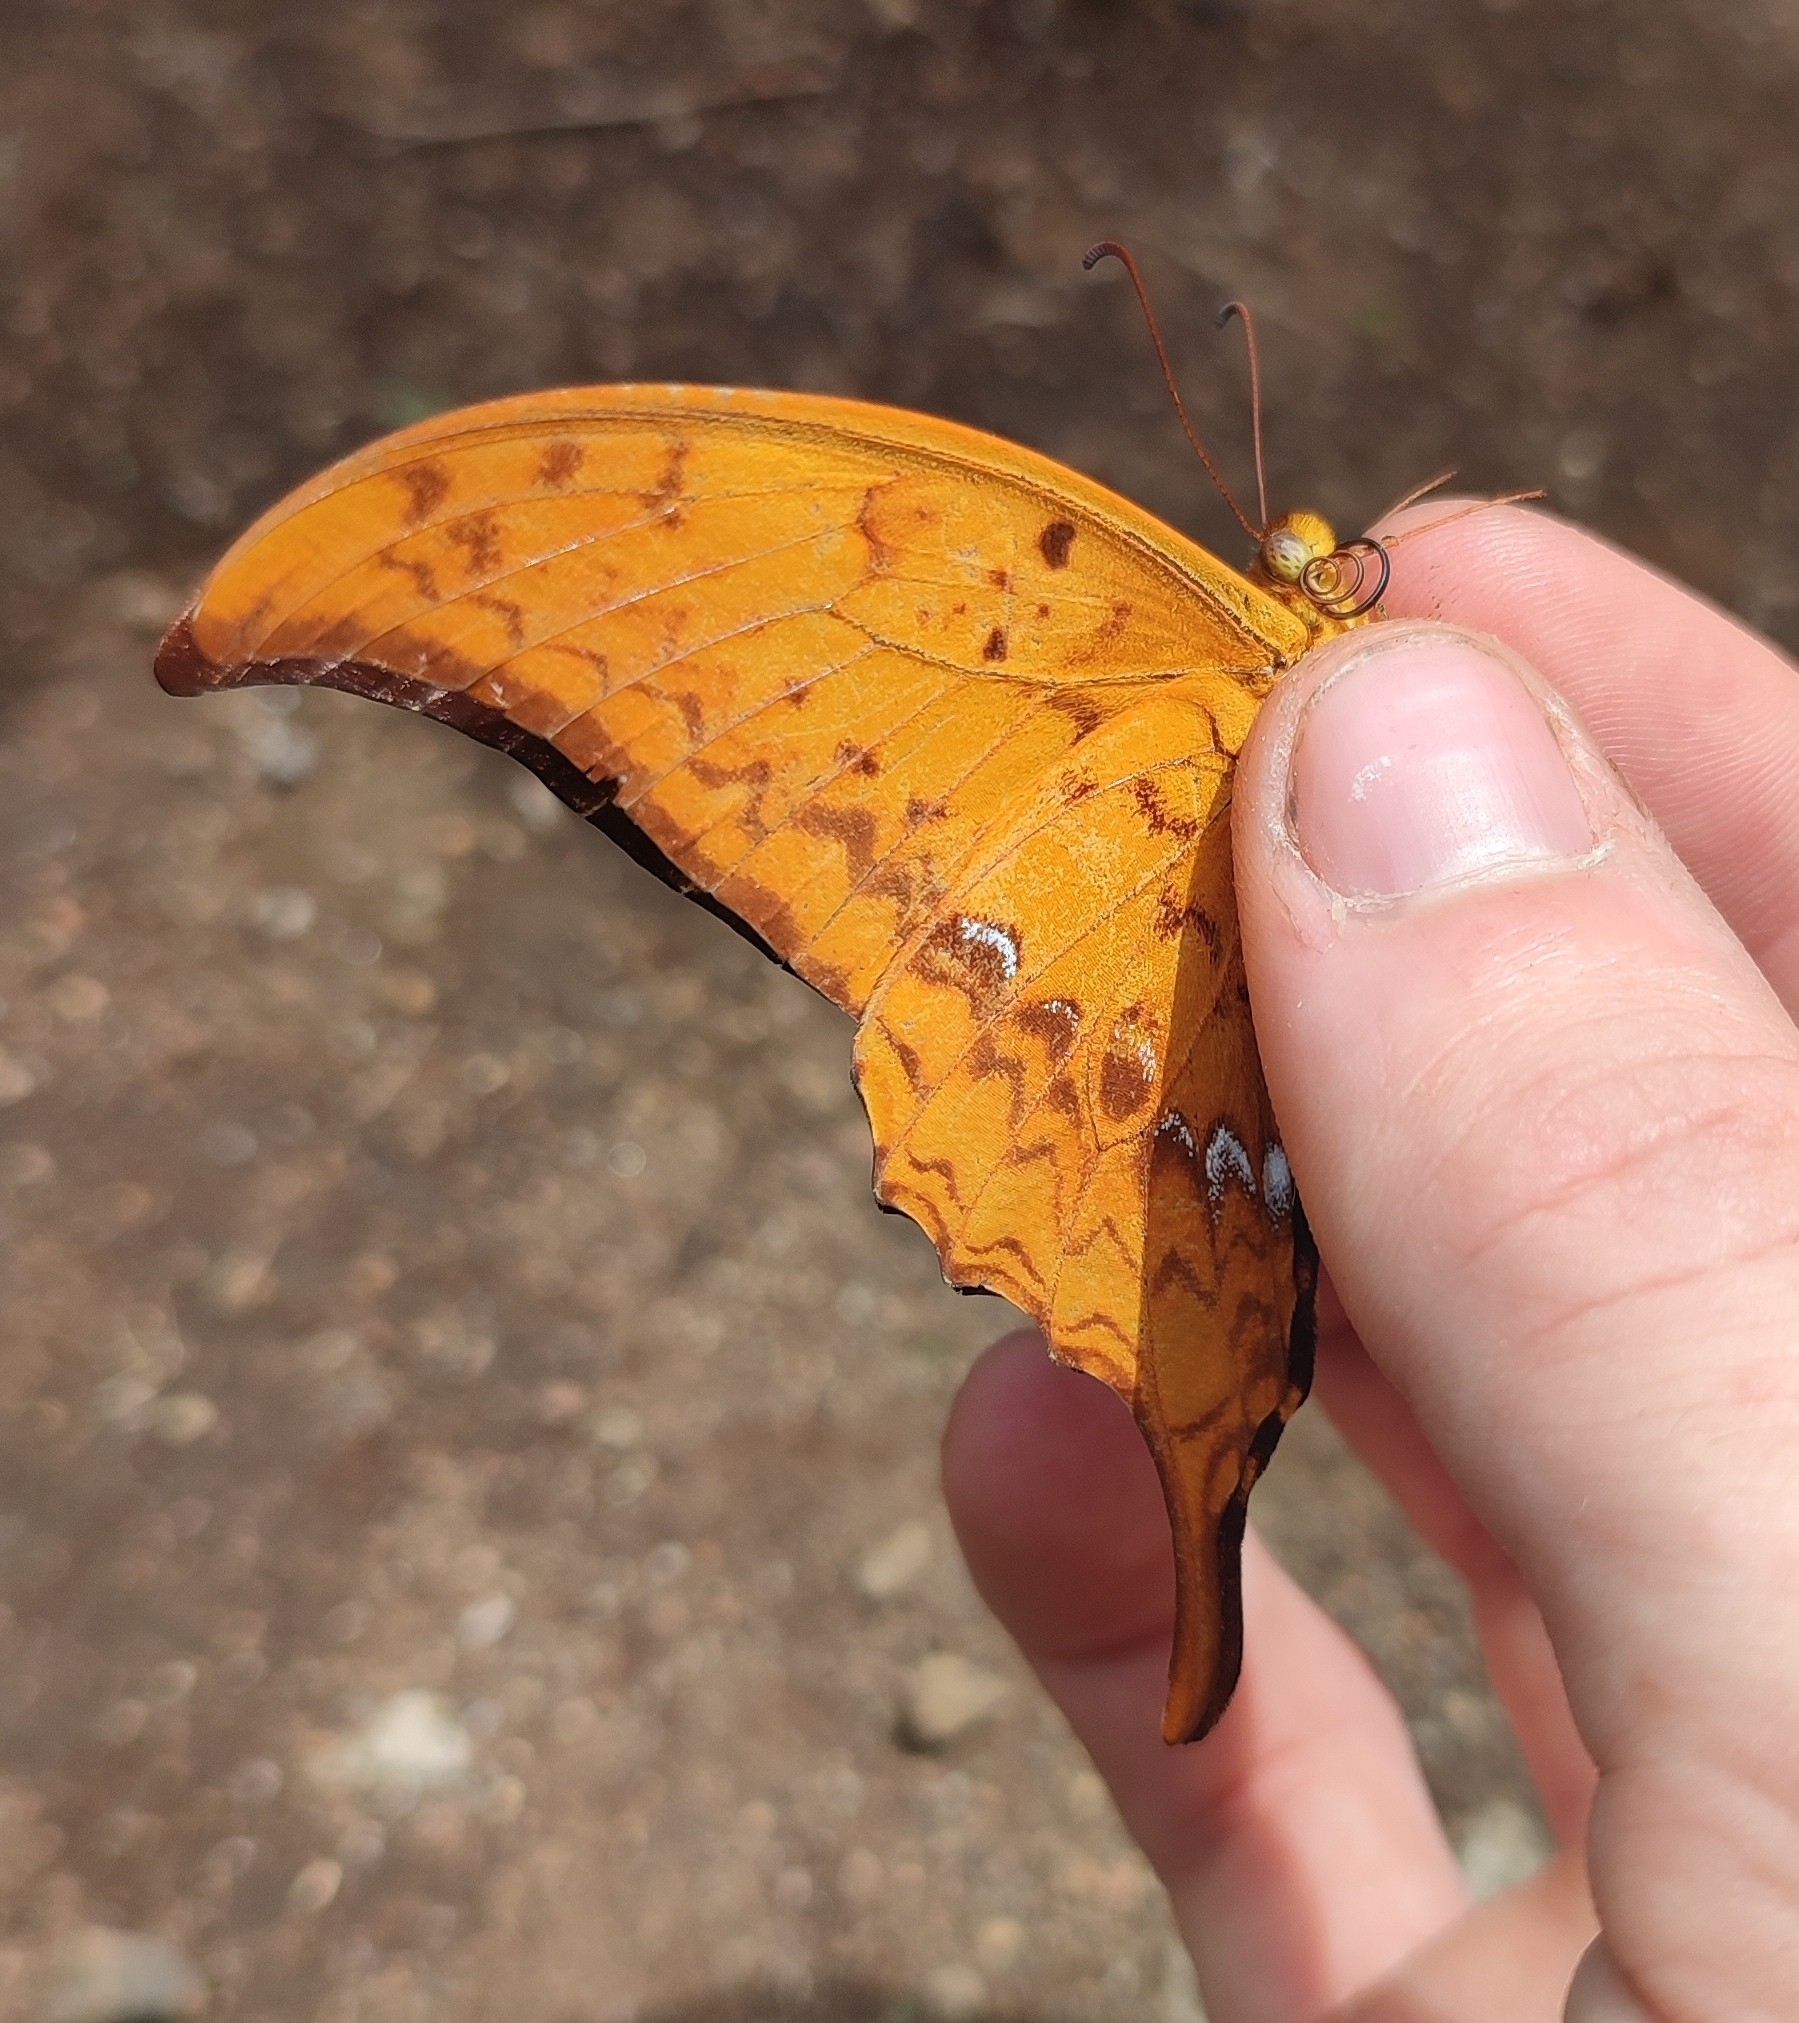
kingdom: Animalia
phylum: Arthropoda
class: Insecta
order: Lepidoptera
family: Papilionidae
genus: Meandrusa
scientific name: Meandrusa payeni
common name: Outlet sword
